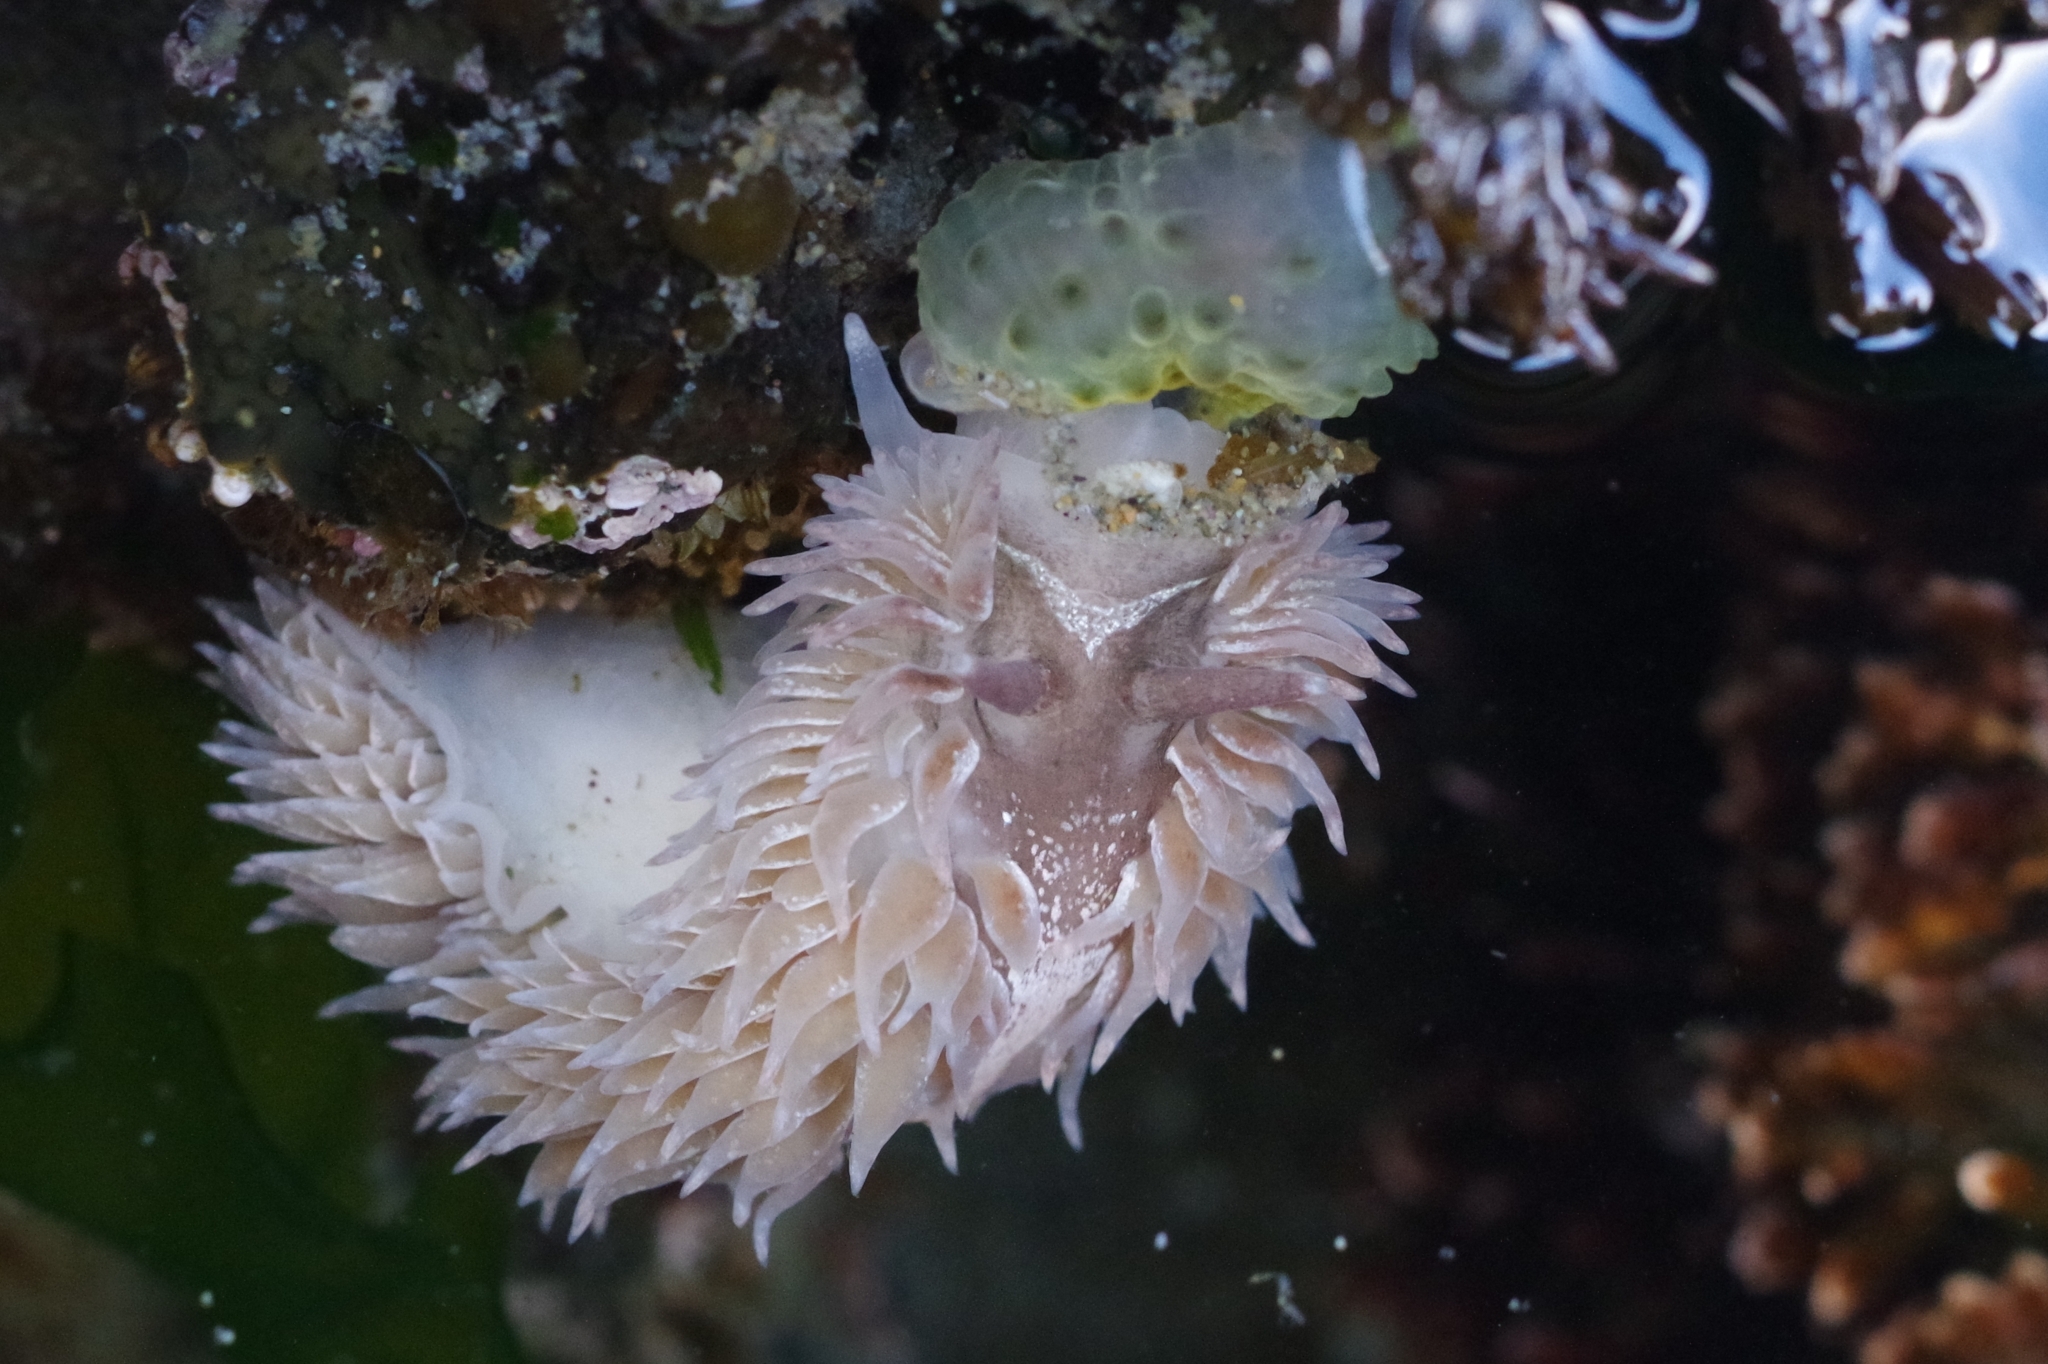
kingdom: Animalia
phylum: Mollusca
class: Gastropoda
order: Nudibranchia
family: Aeolidiidae
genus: Aeolidia
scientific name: Aeolidia papillosa
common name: Common grey sea slug
